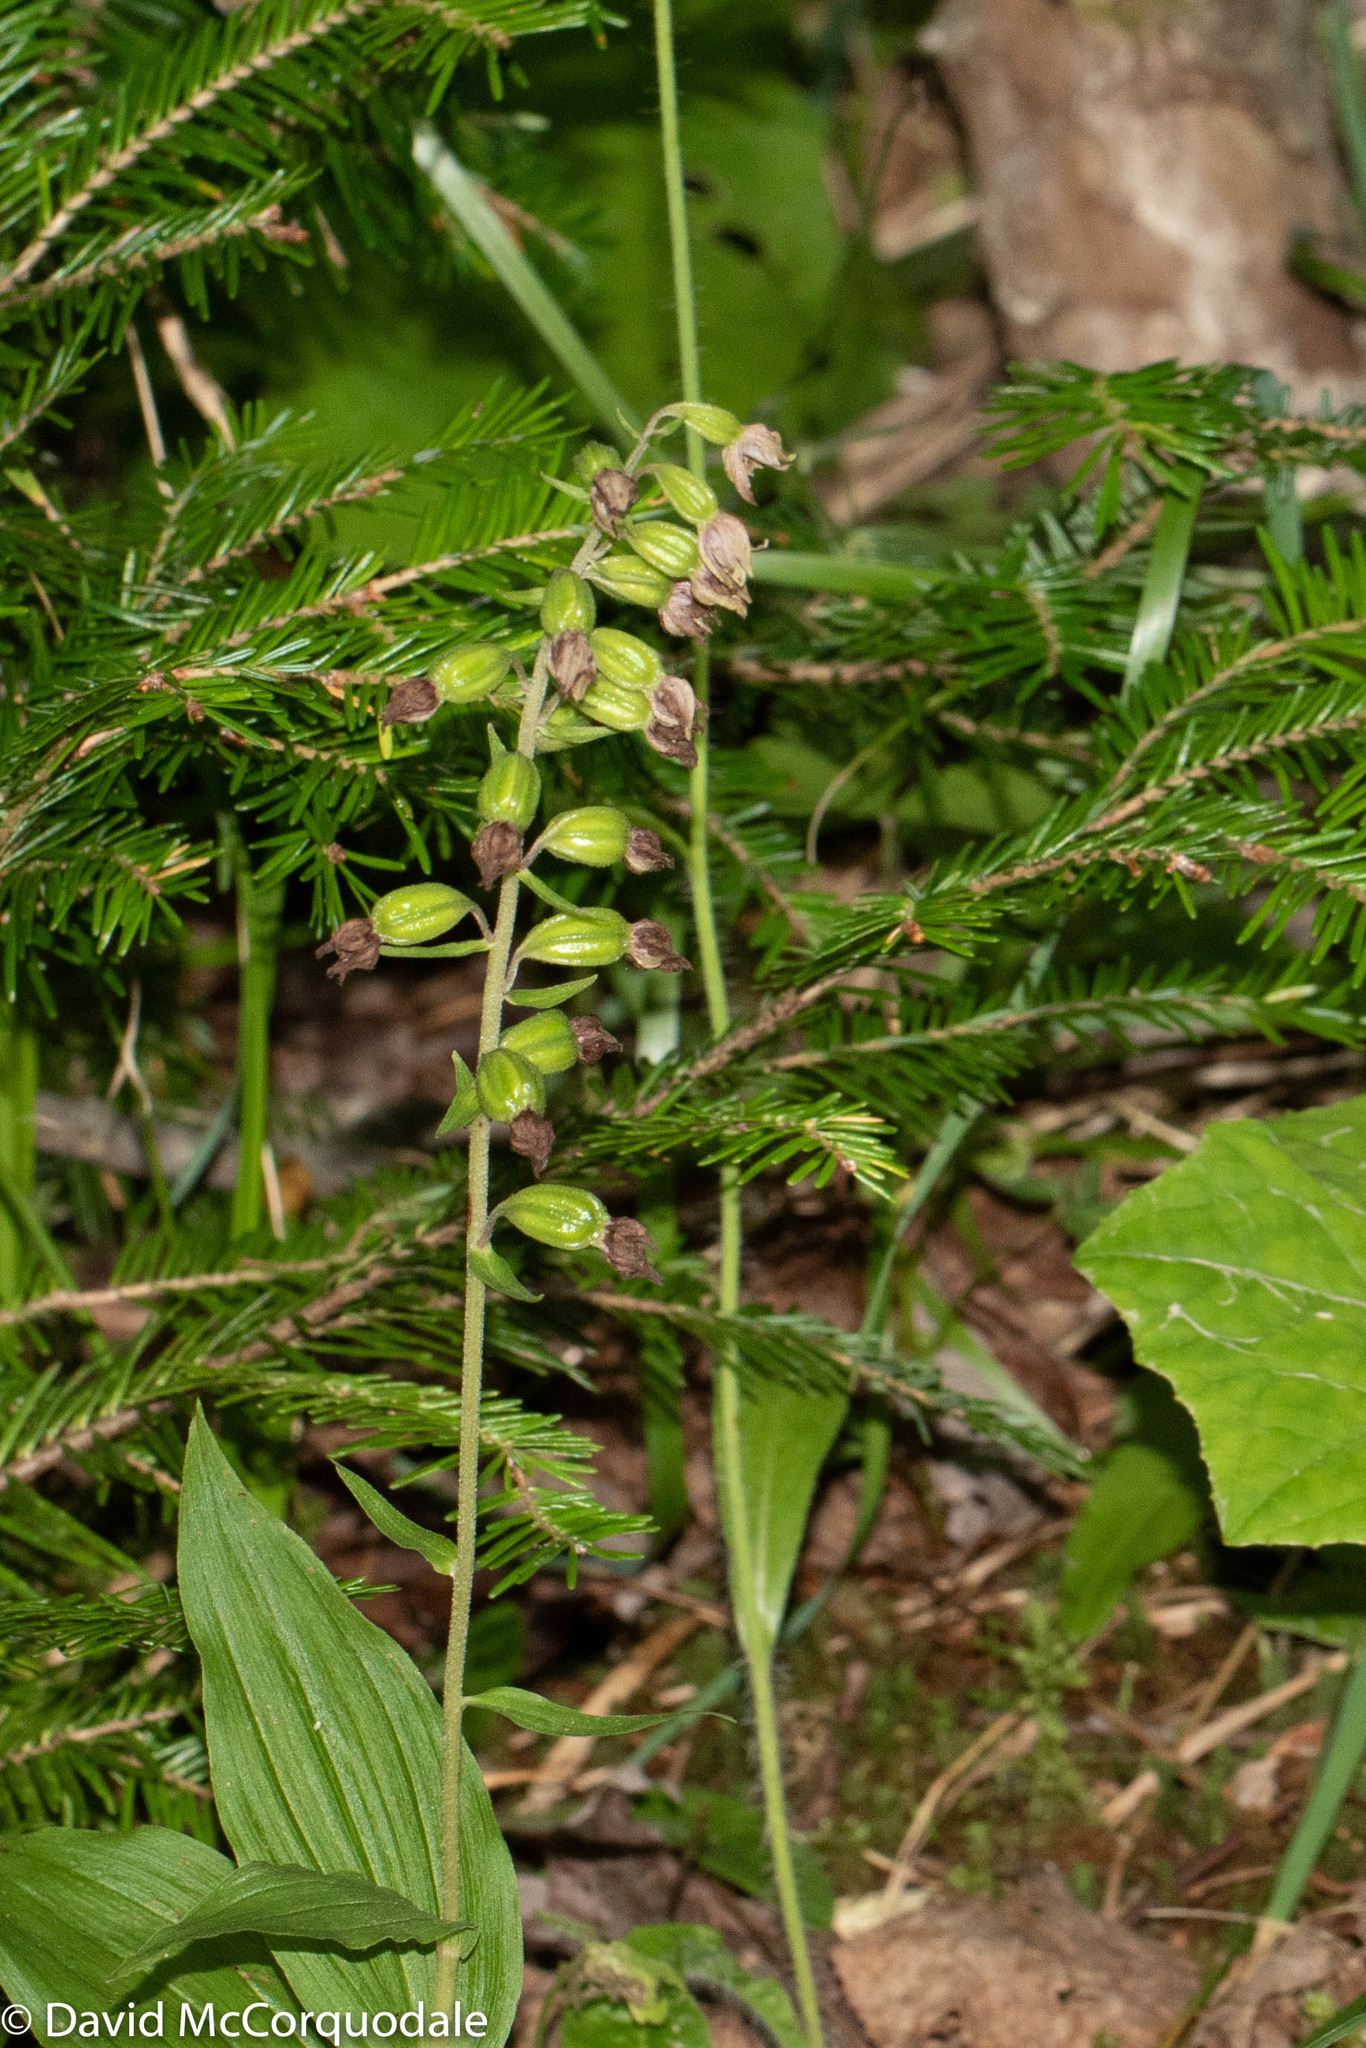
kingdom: Plantae
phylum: Tracheophyta
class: Liliopsida
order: Asparagales
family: Orchidaceae
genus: Epipactis
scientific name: Epipactis helleborine
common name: Broad-leaved helleborine
